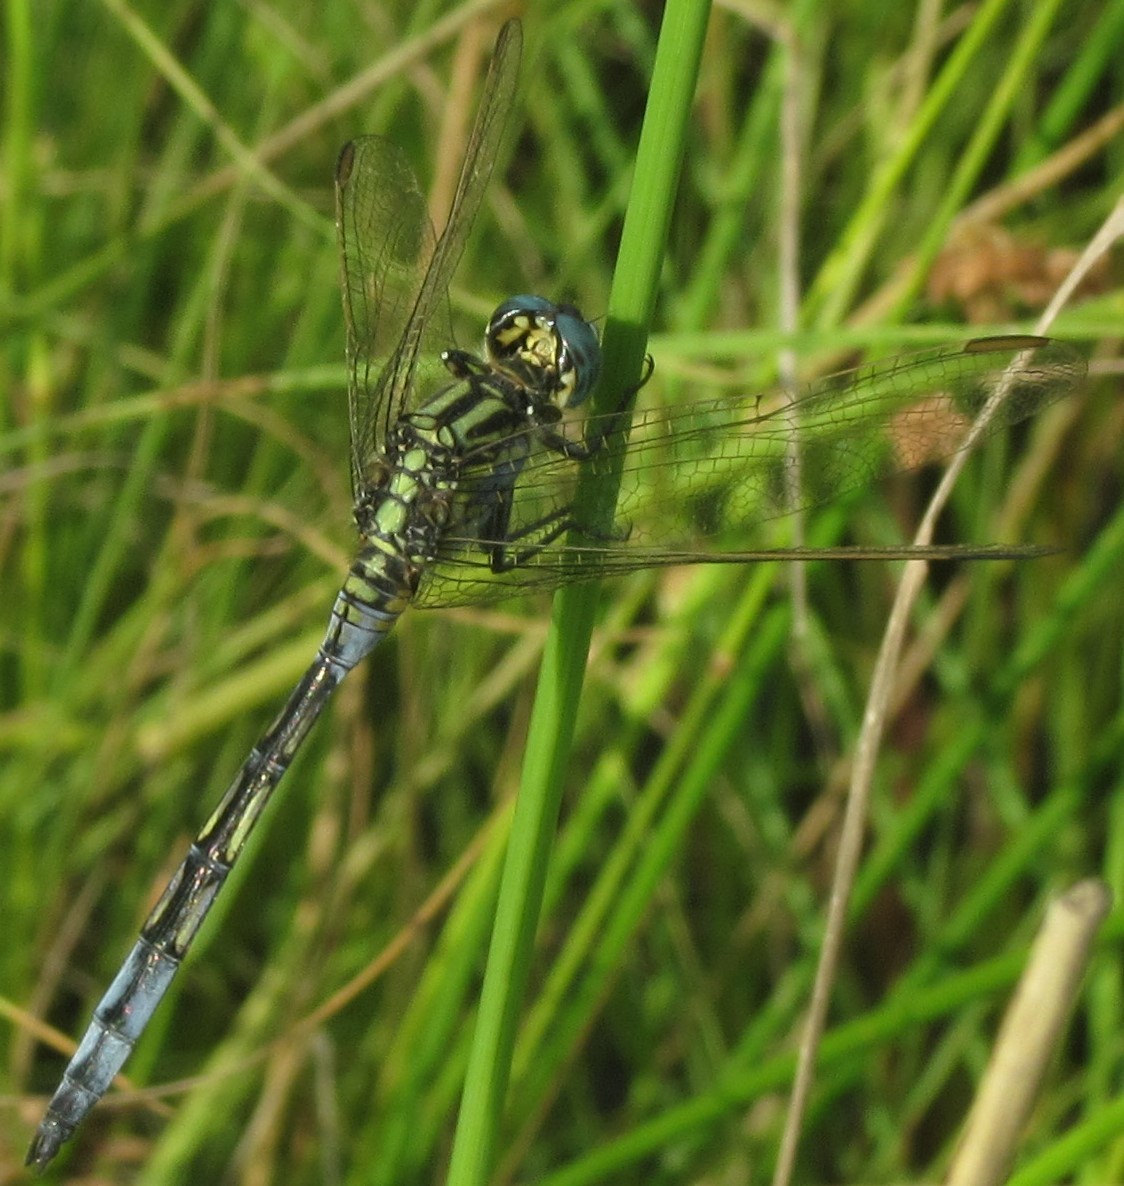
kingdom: Animalia
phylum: Arthropoda
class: Insecta
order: Odonata
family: Libellulidae
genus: Orthetrum
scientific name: Orthetrum icteromelas
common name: Spectacled skimmer
